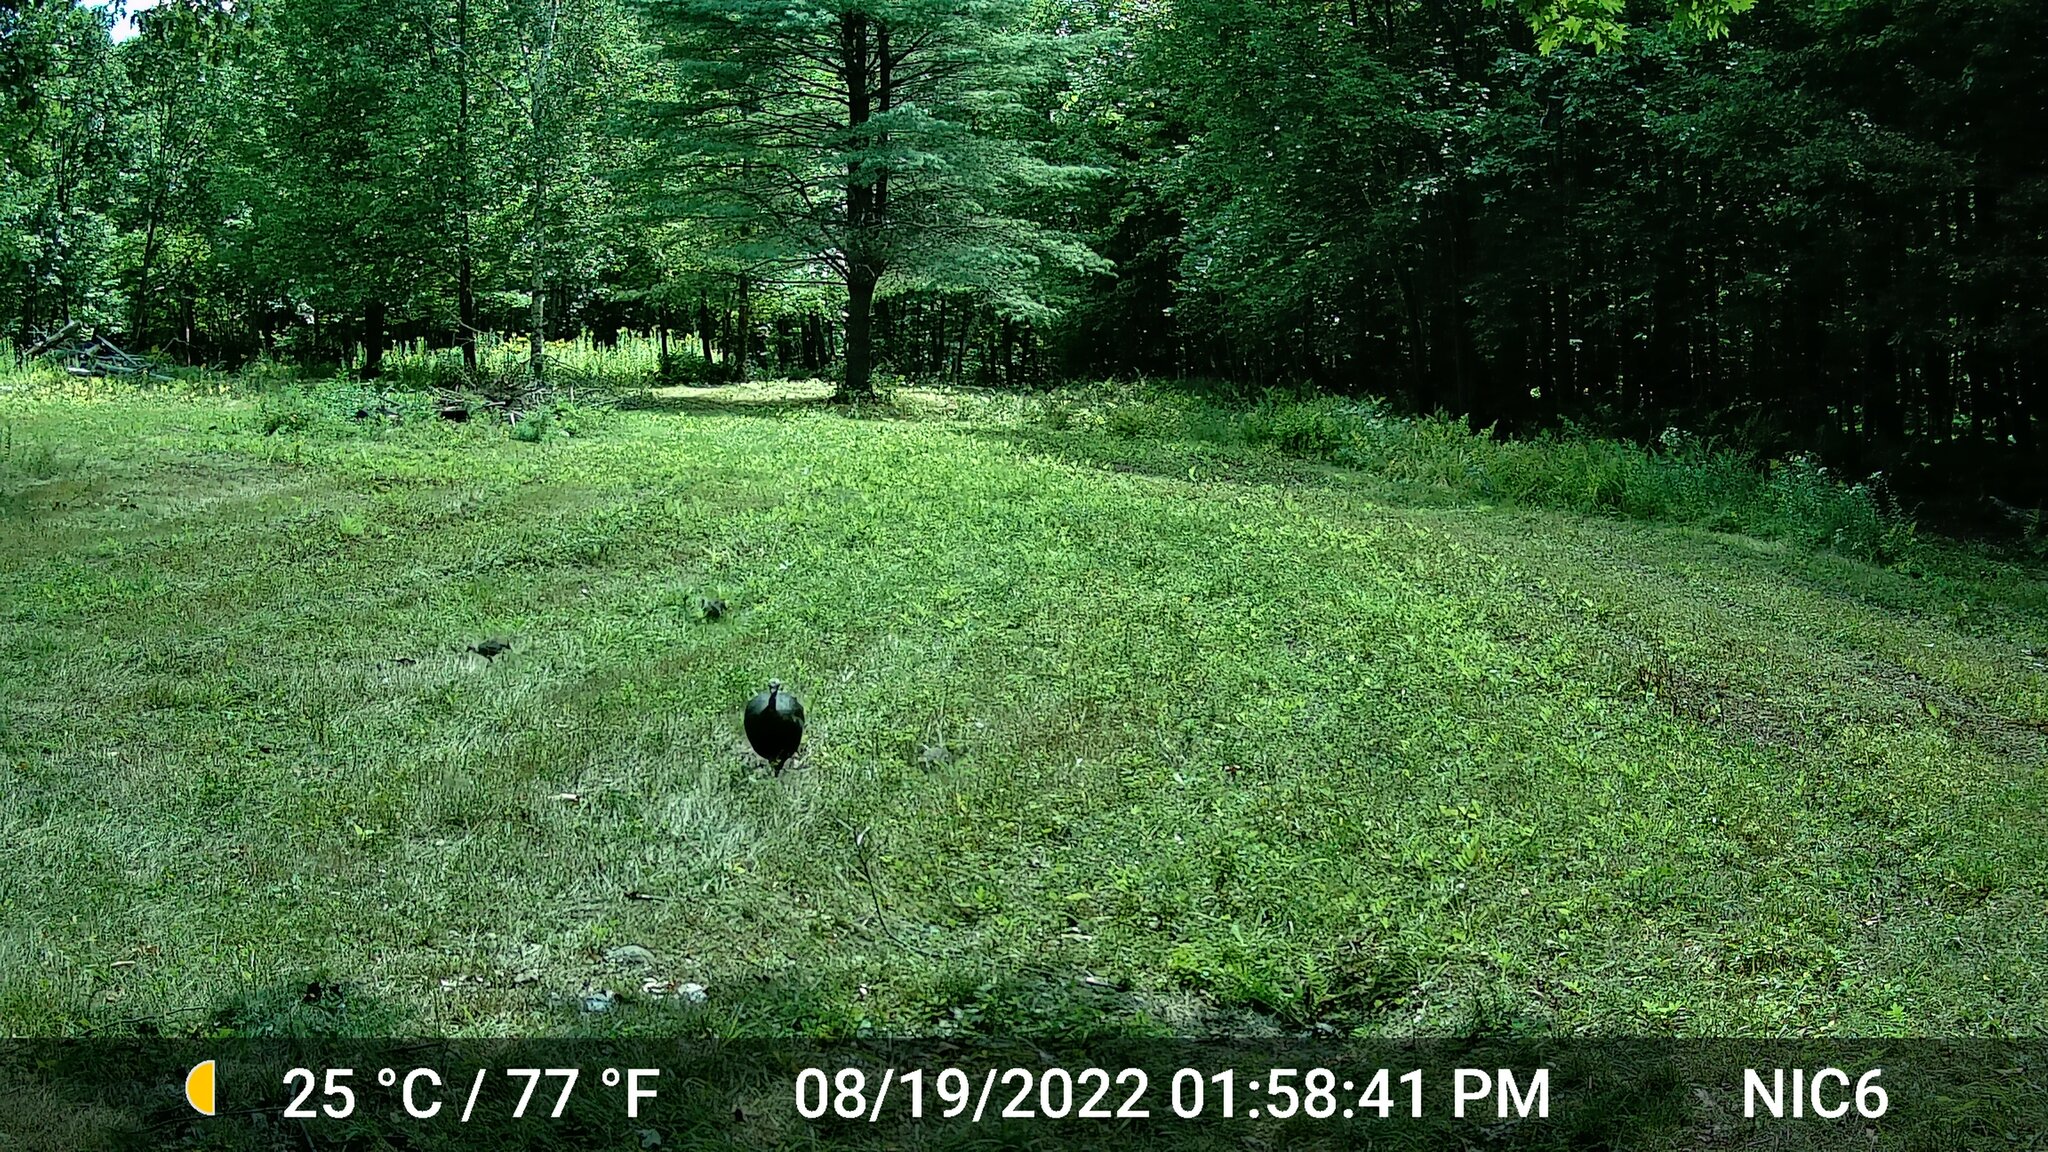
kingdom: Animalia
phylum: Chordata
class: Aves
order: Galliformes
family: Phasianidae
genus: Meleagris
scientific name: Meleagris gallopavo
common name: Wild turkey
